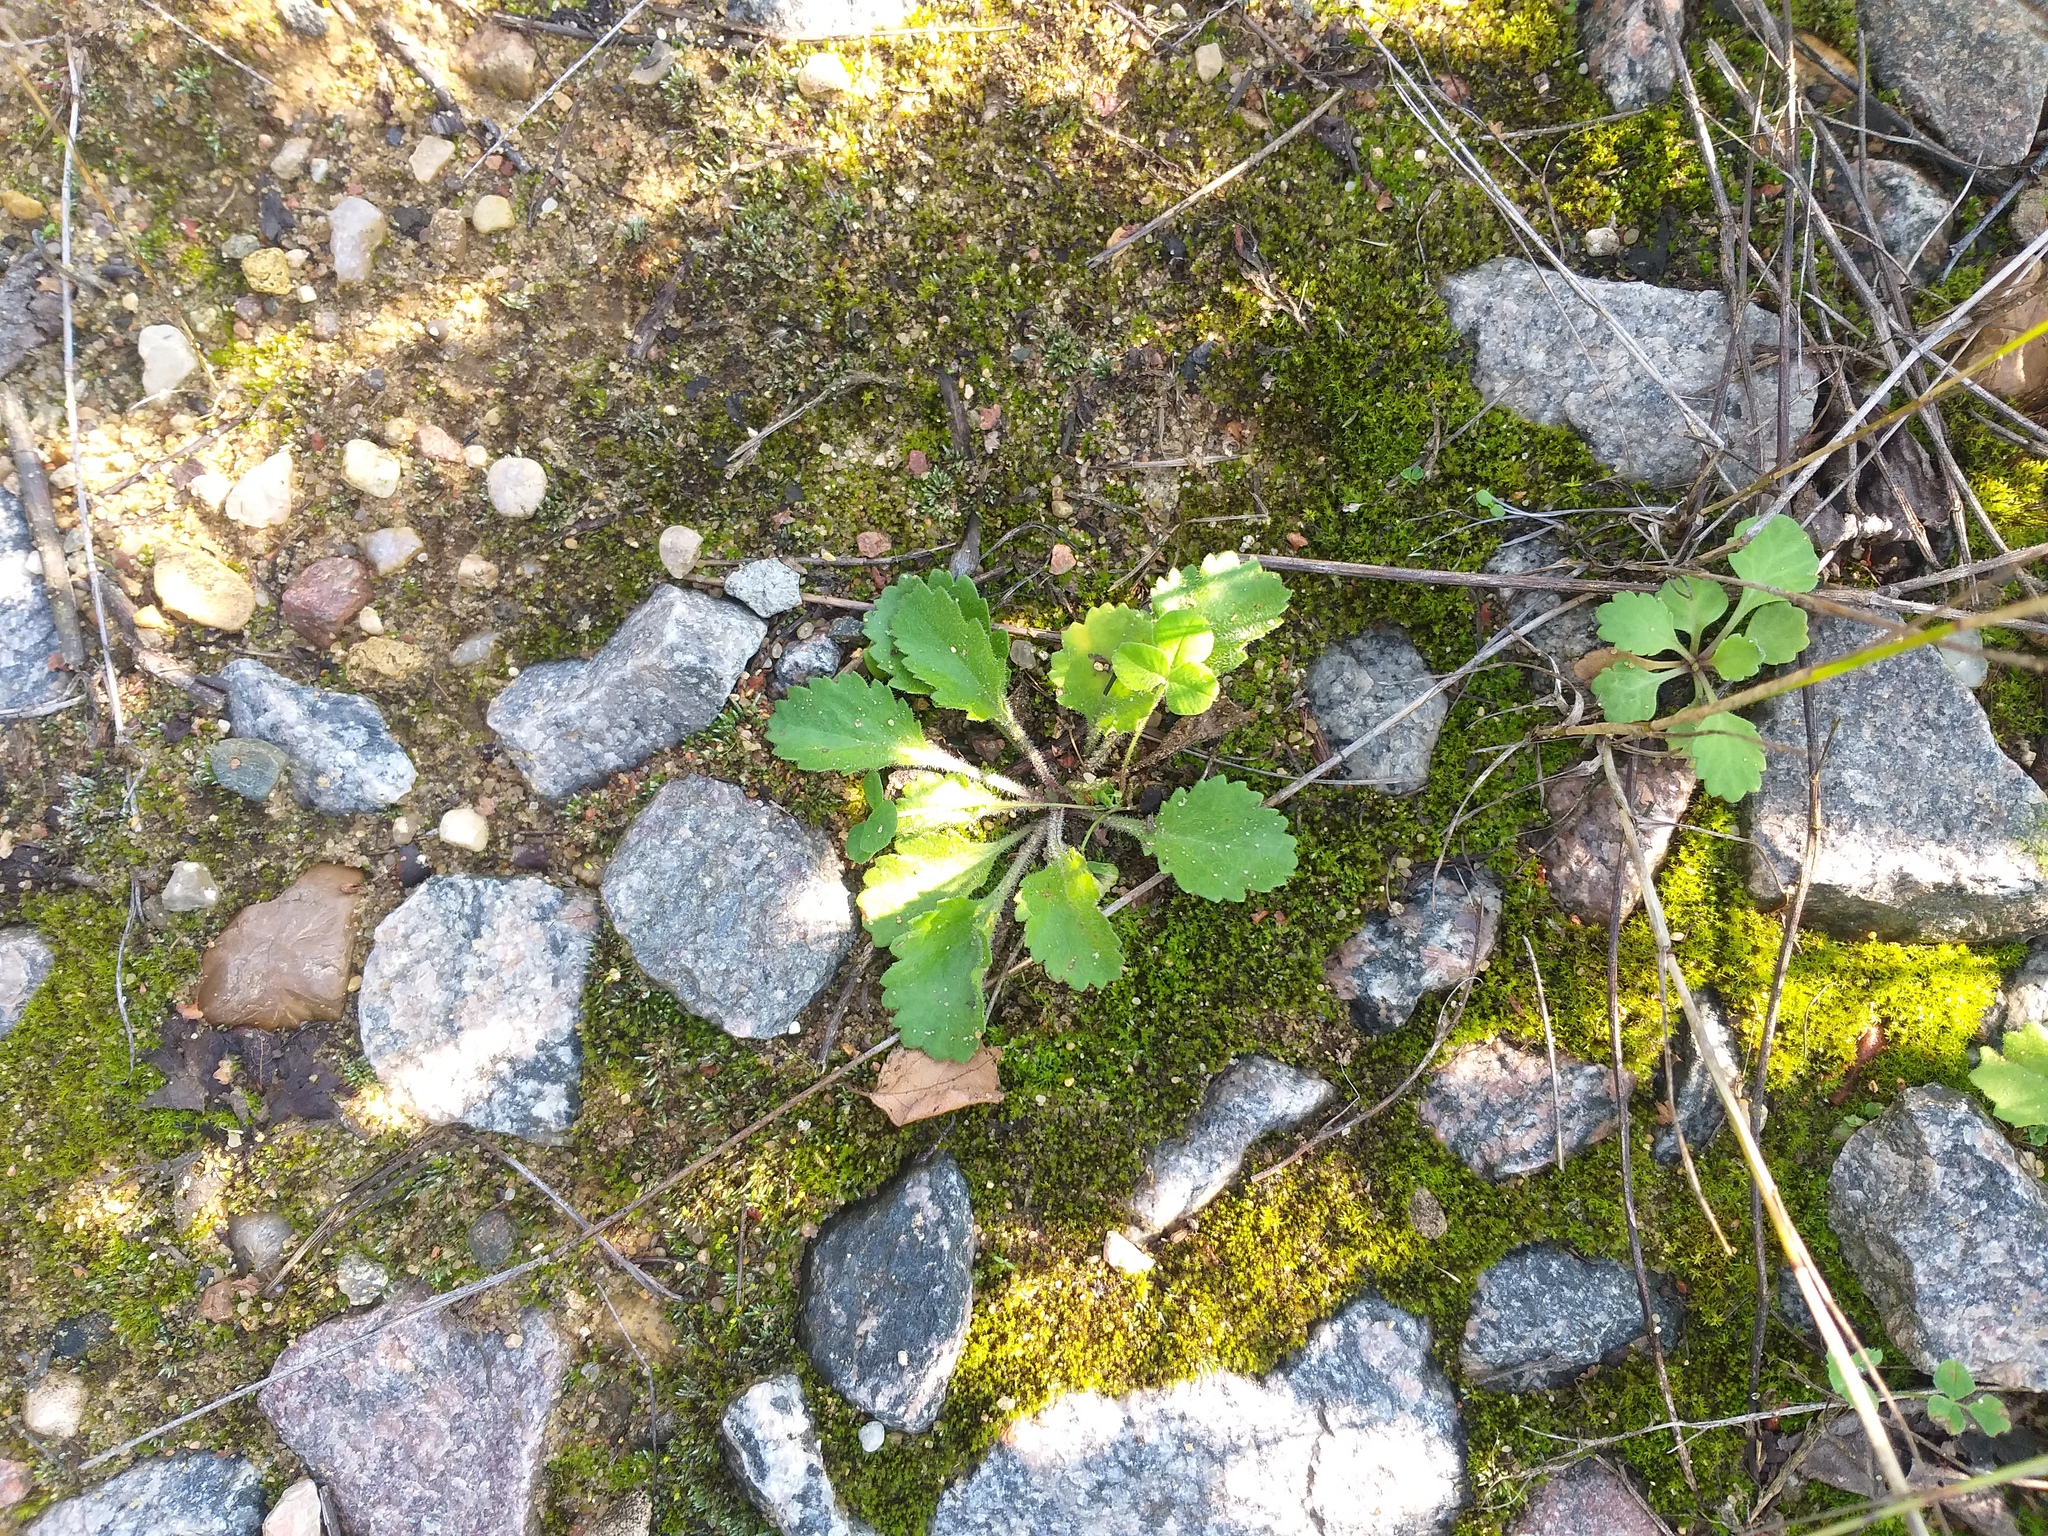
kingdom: Plantae
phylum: Tracheophyta
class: Magnoliopsida
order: Asterales
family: Asteraceae
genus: Leucanthemum
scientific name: Leucanthemum vulgare
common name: Oxeye daisy
